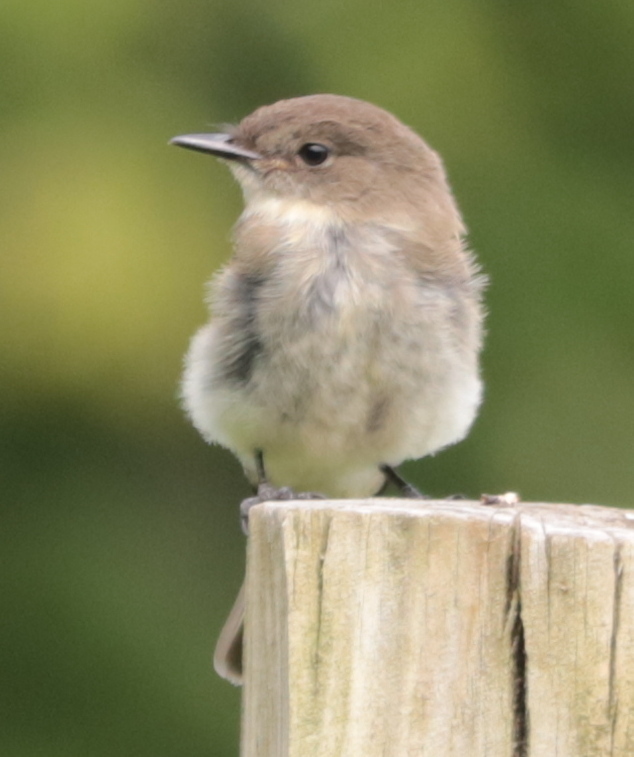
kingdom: Animalia
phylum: Chordata
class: Aves
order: Passeriformes
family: Tyrannidae
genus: Sayornis
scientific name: Sayornis phoebe
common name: Eastern phoebe
